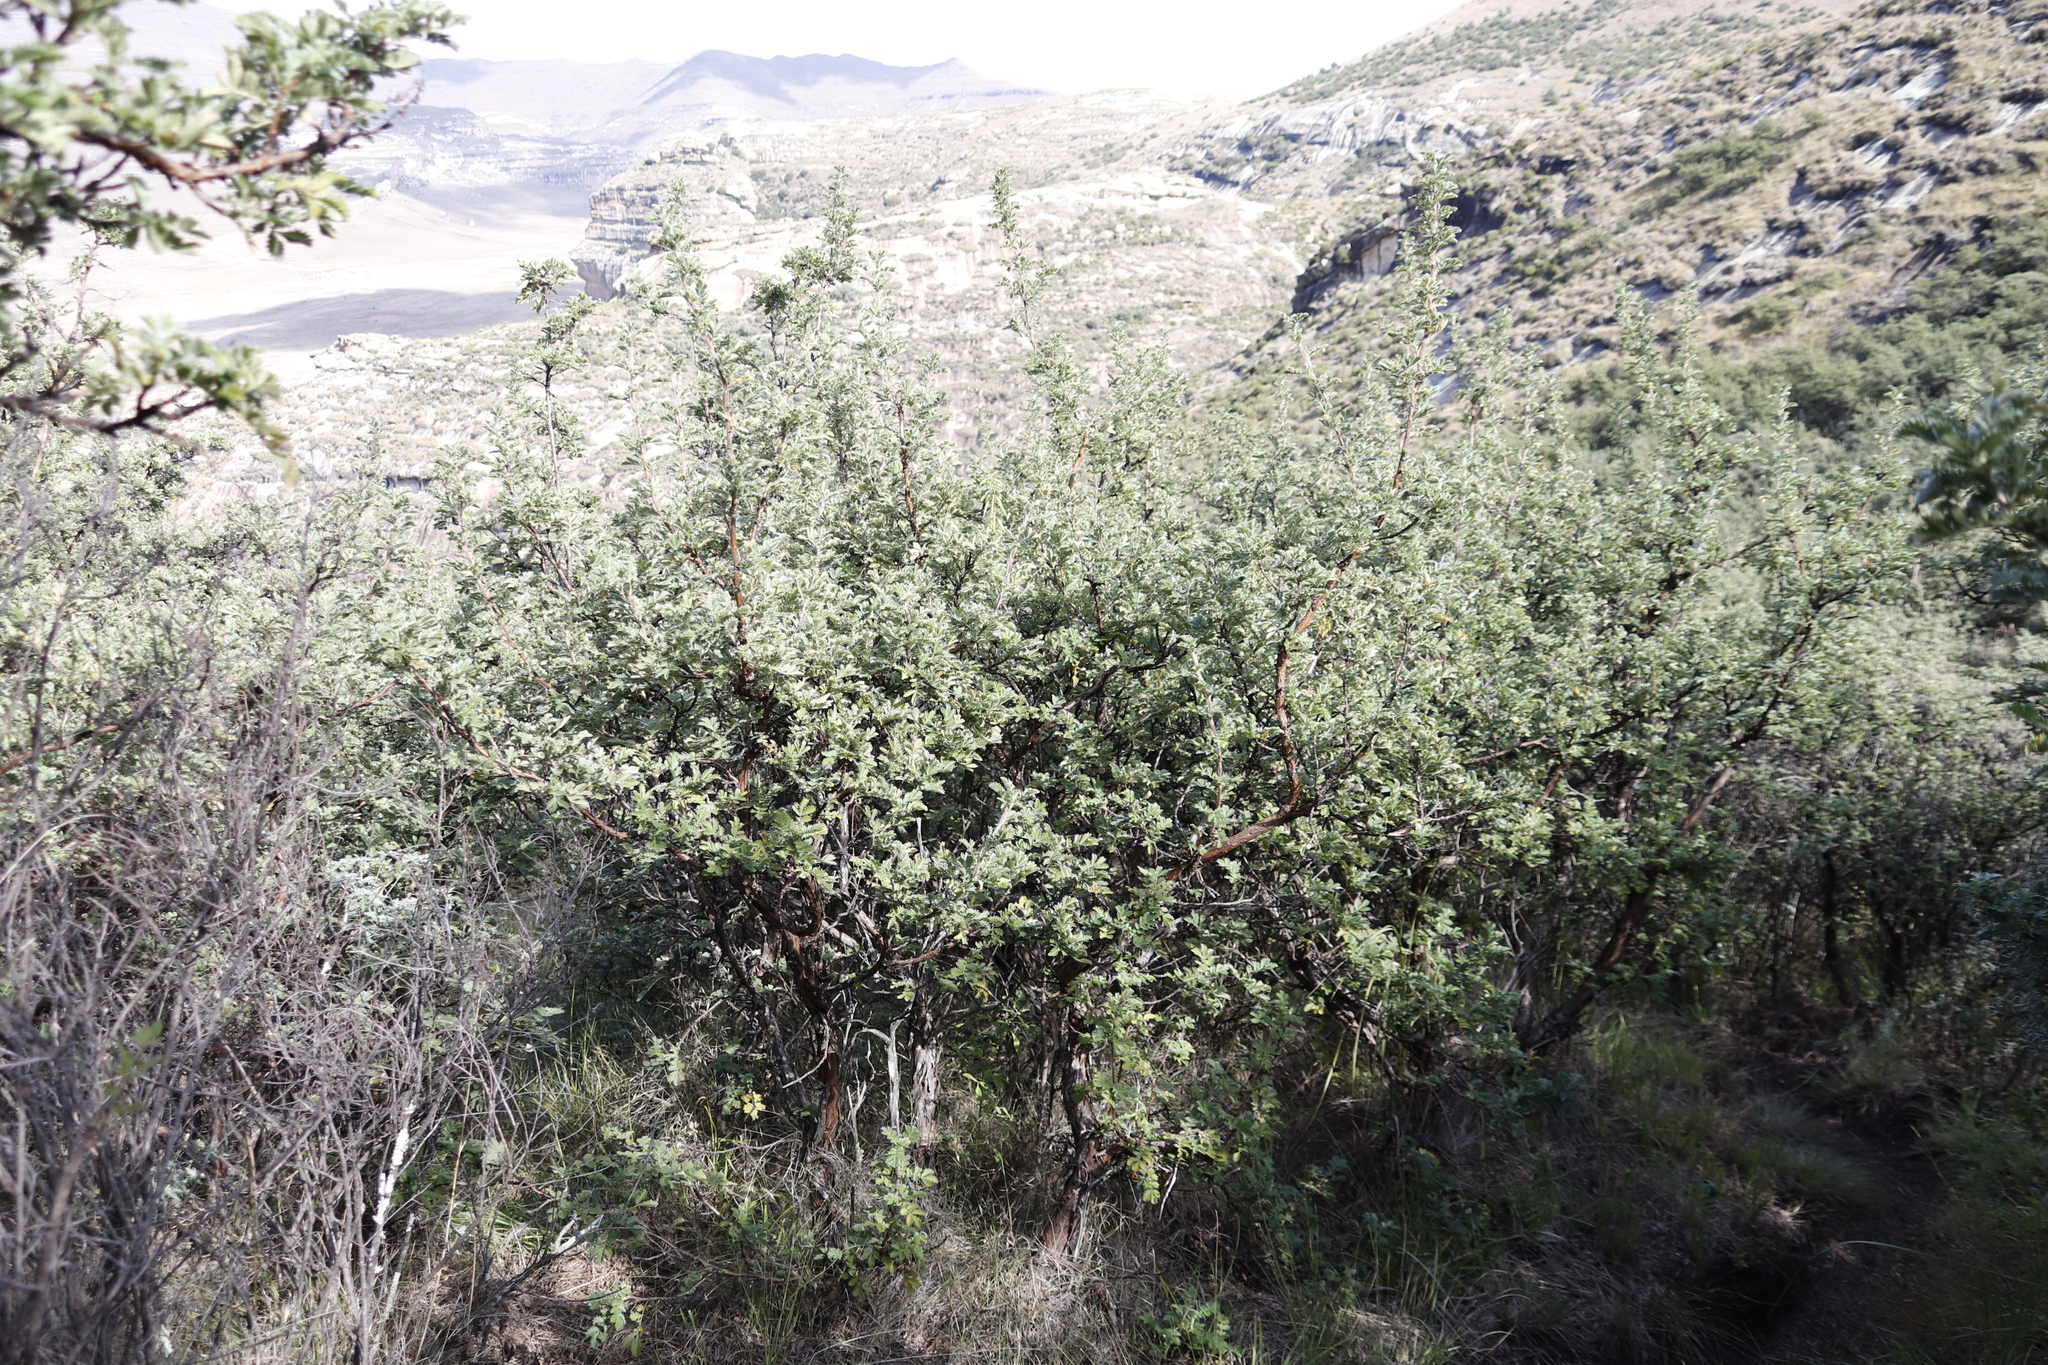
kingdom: Plantae
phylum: Tracheophyta
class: Magnoliopsida
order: Rosales
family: Rosaceae
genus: Leucosidea
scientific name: Leucosidea sericea
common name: Oldwood
